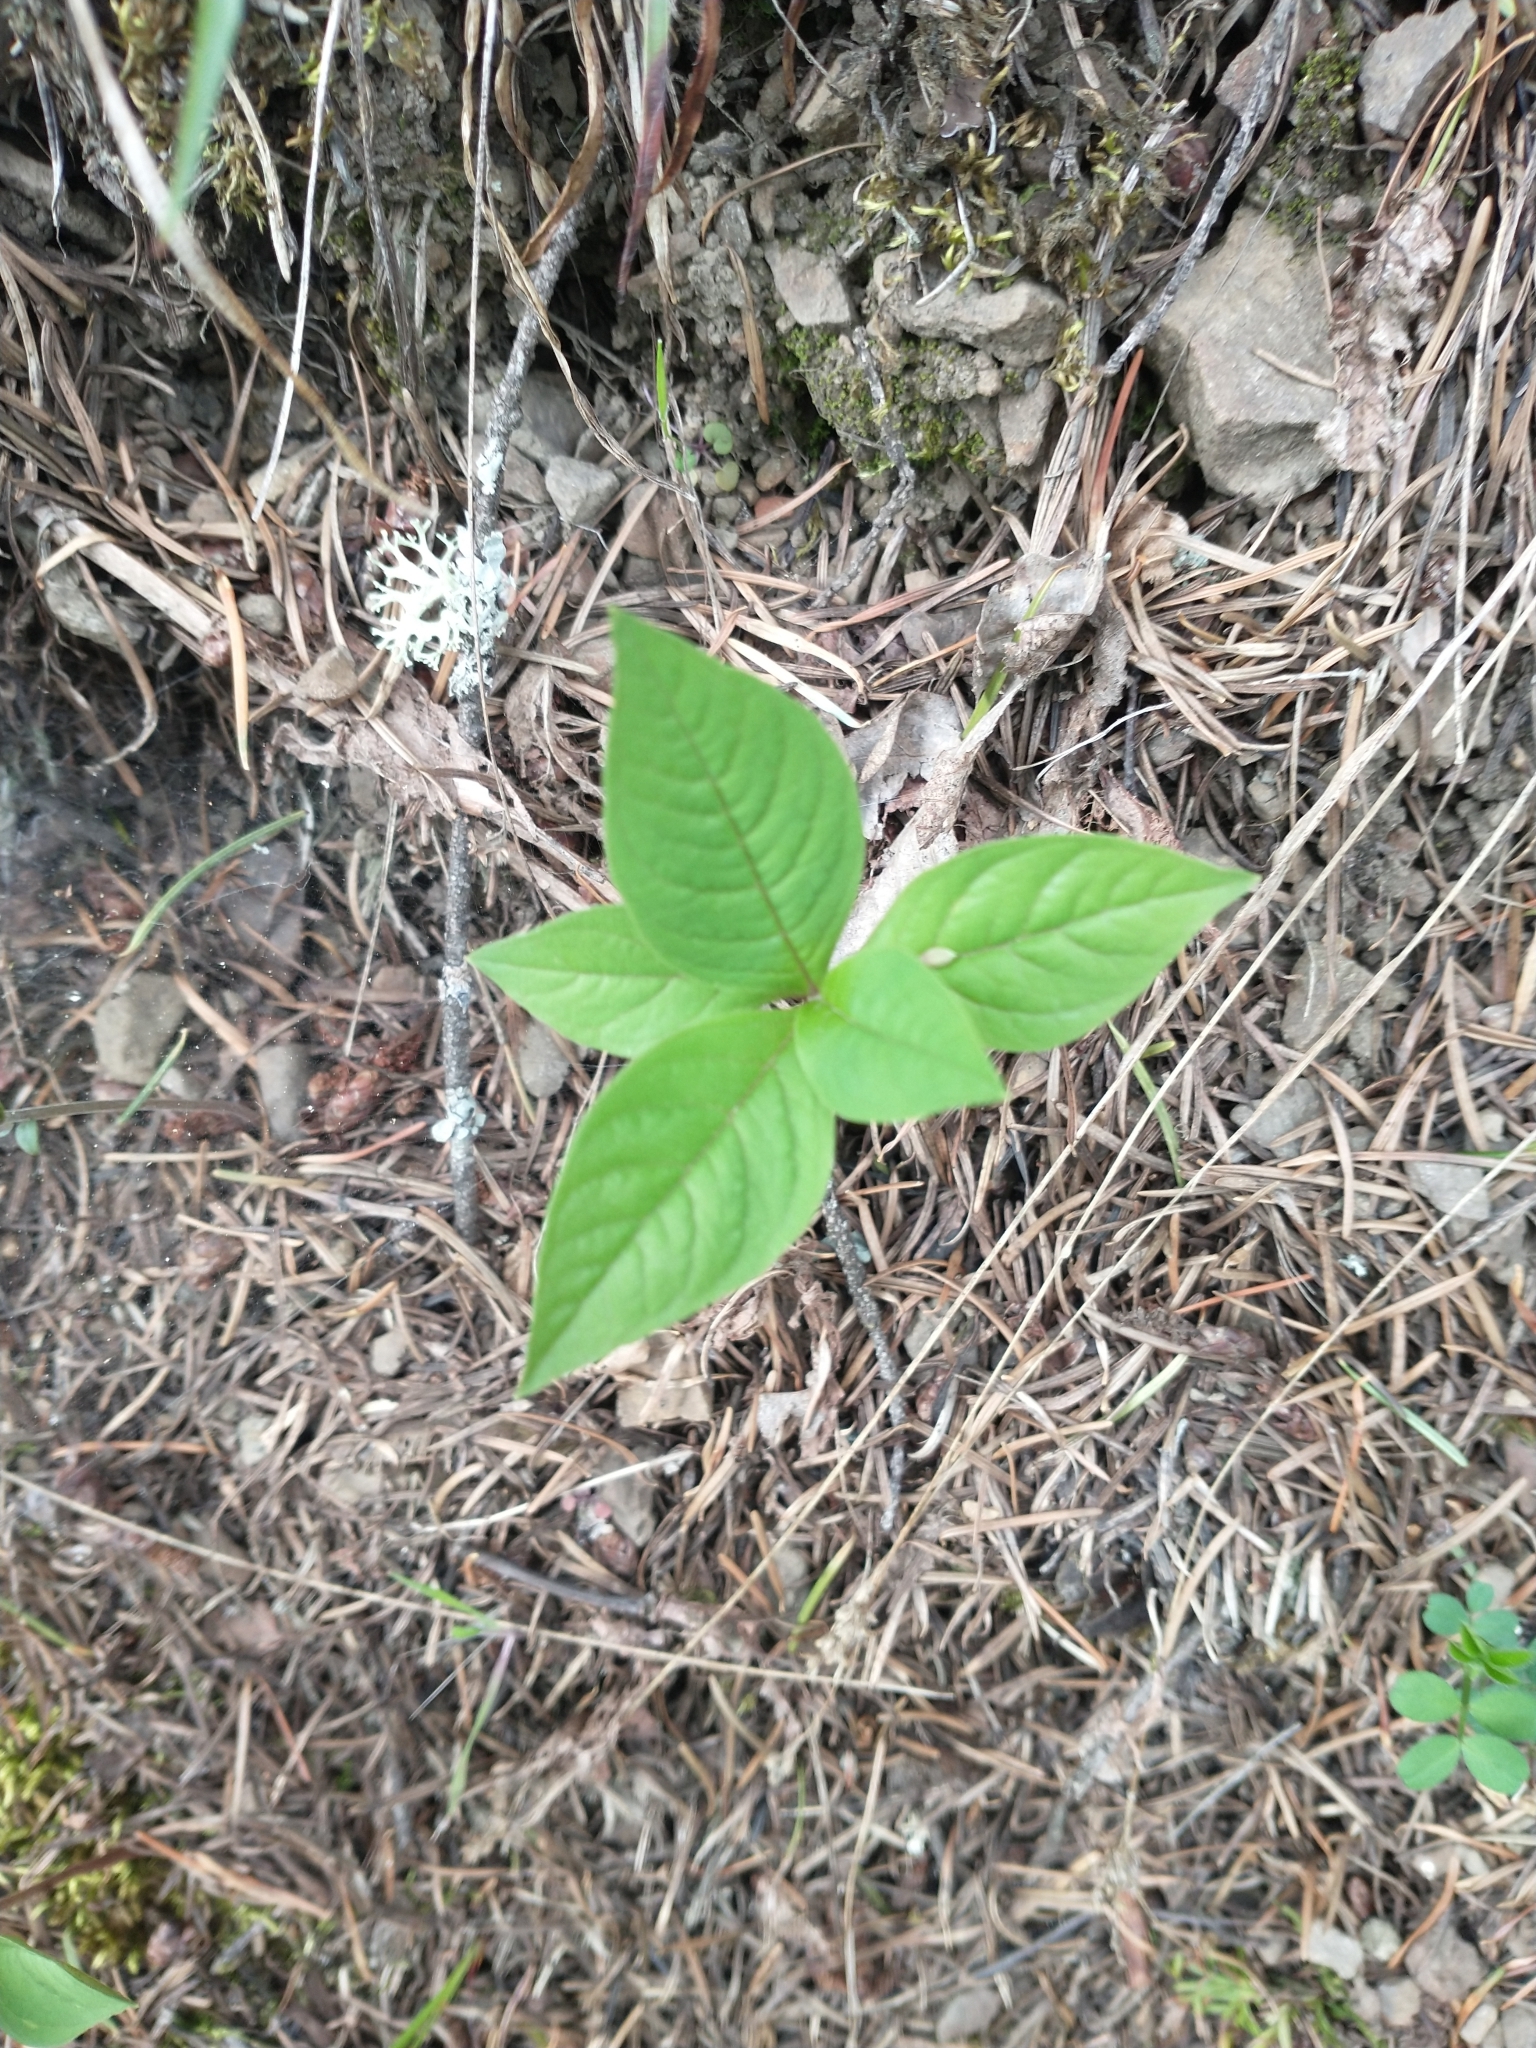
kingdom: Plantae
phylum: Tracheophyta
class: Magnoliopsida
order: Ericales
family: Primulaceae
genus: Lysimachia
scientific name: Lysimachia latifolia
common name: Pacific starflower
